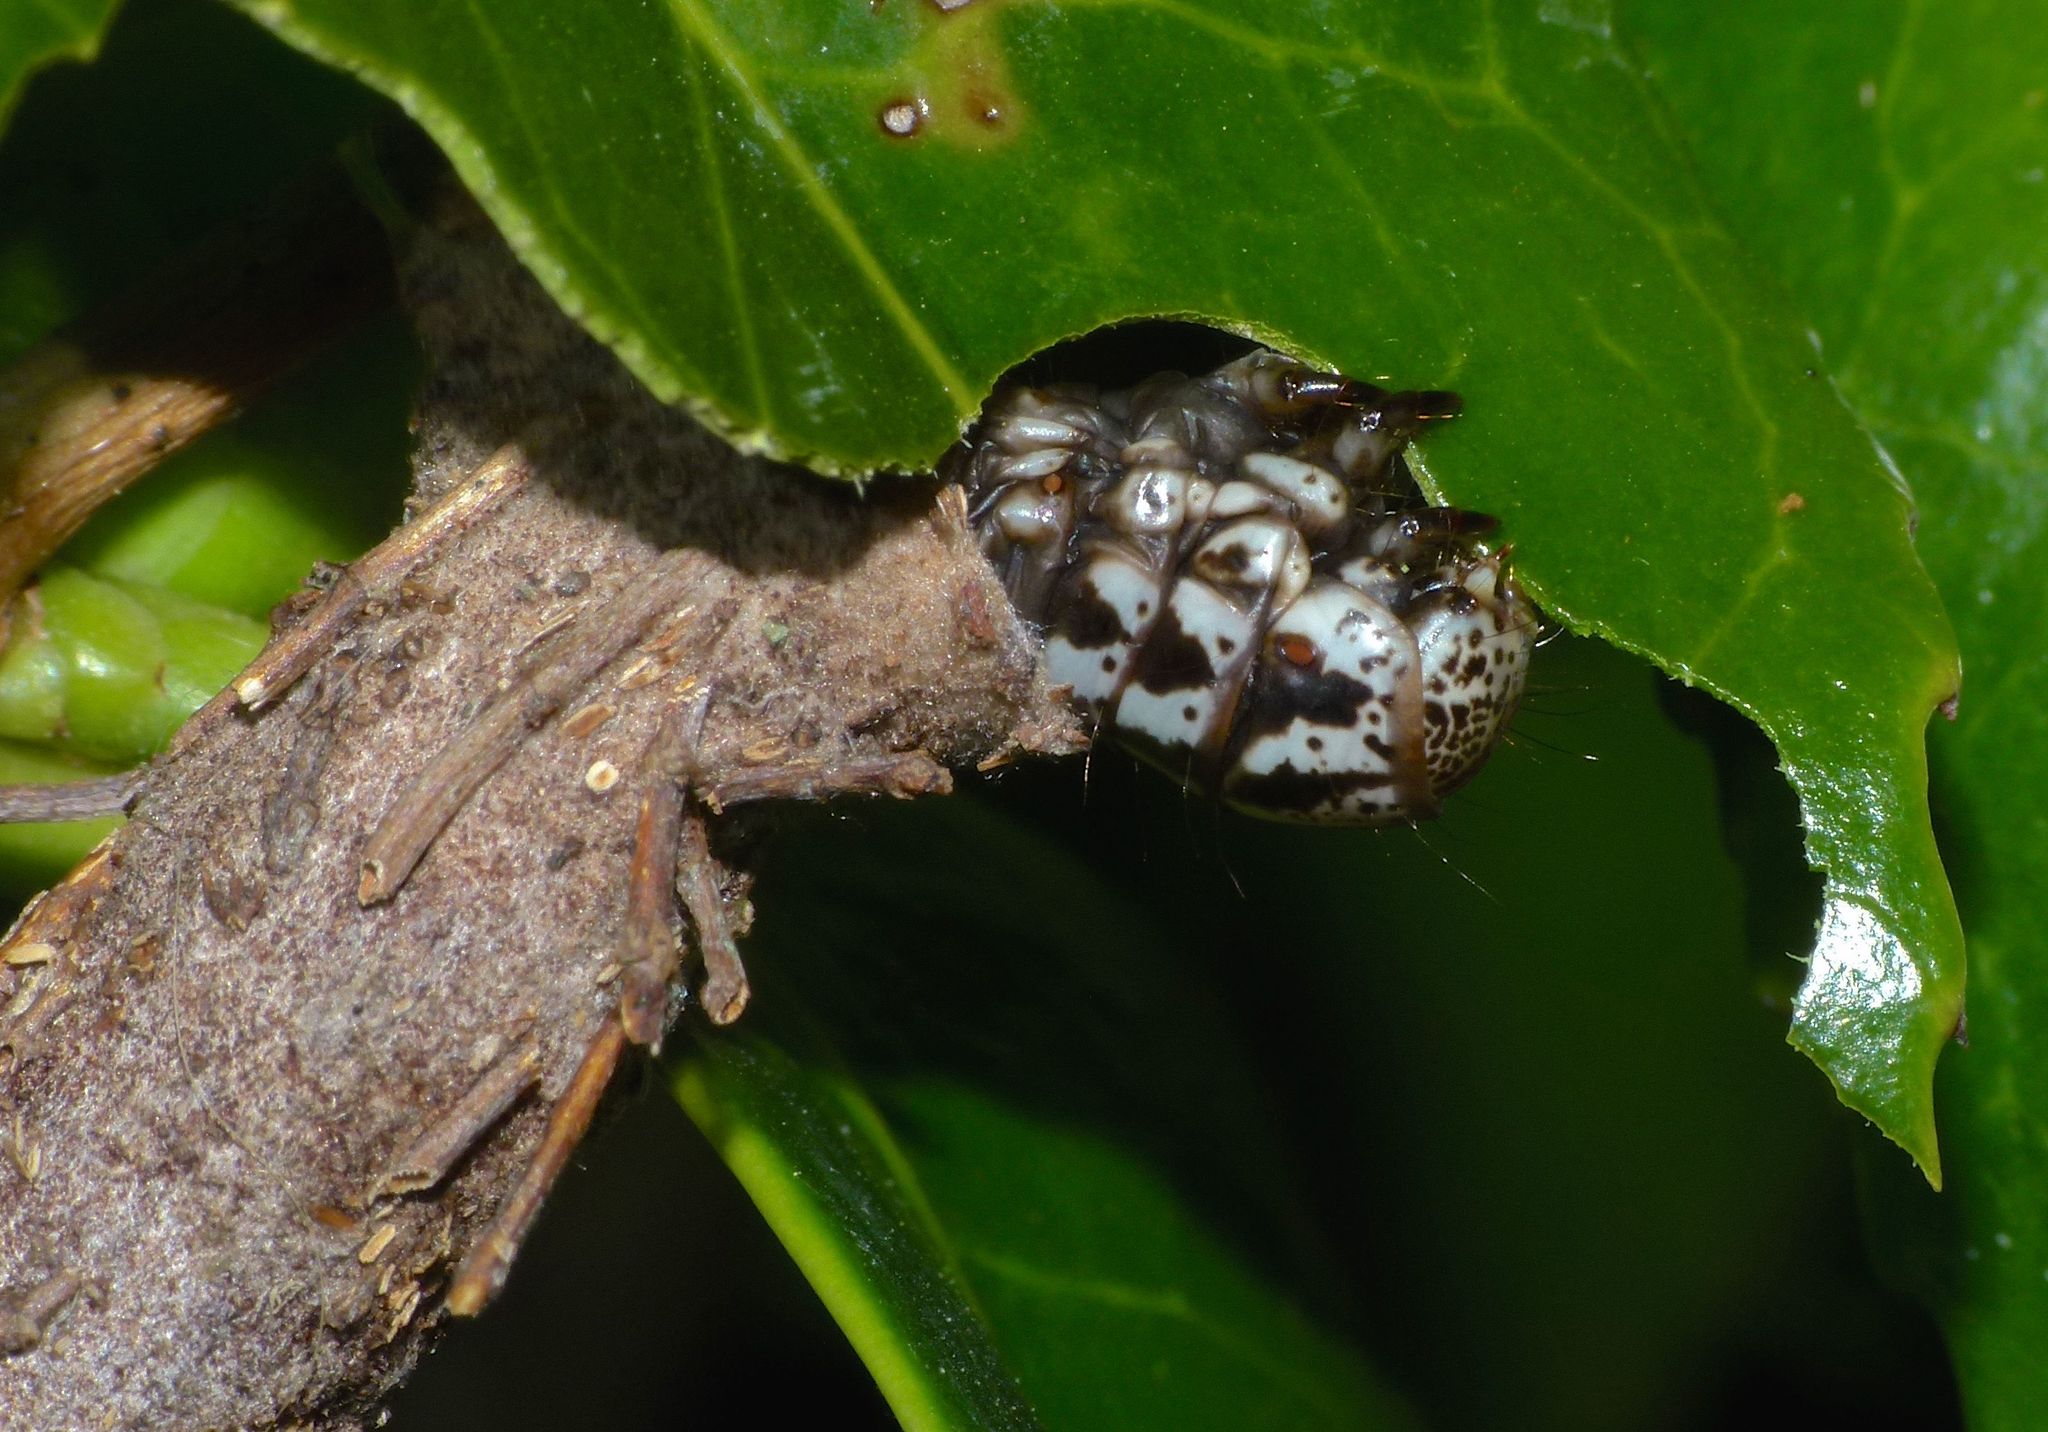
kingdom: Animalia
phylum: Arthropoda
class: Insecta
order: Lepidoptera
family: Psychidae
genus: Liothula
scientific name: Liothula omnivora
